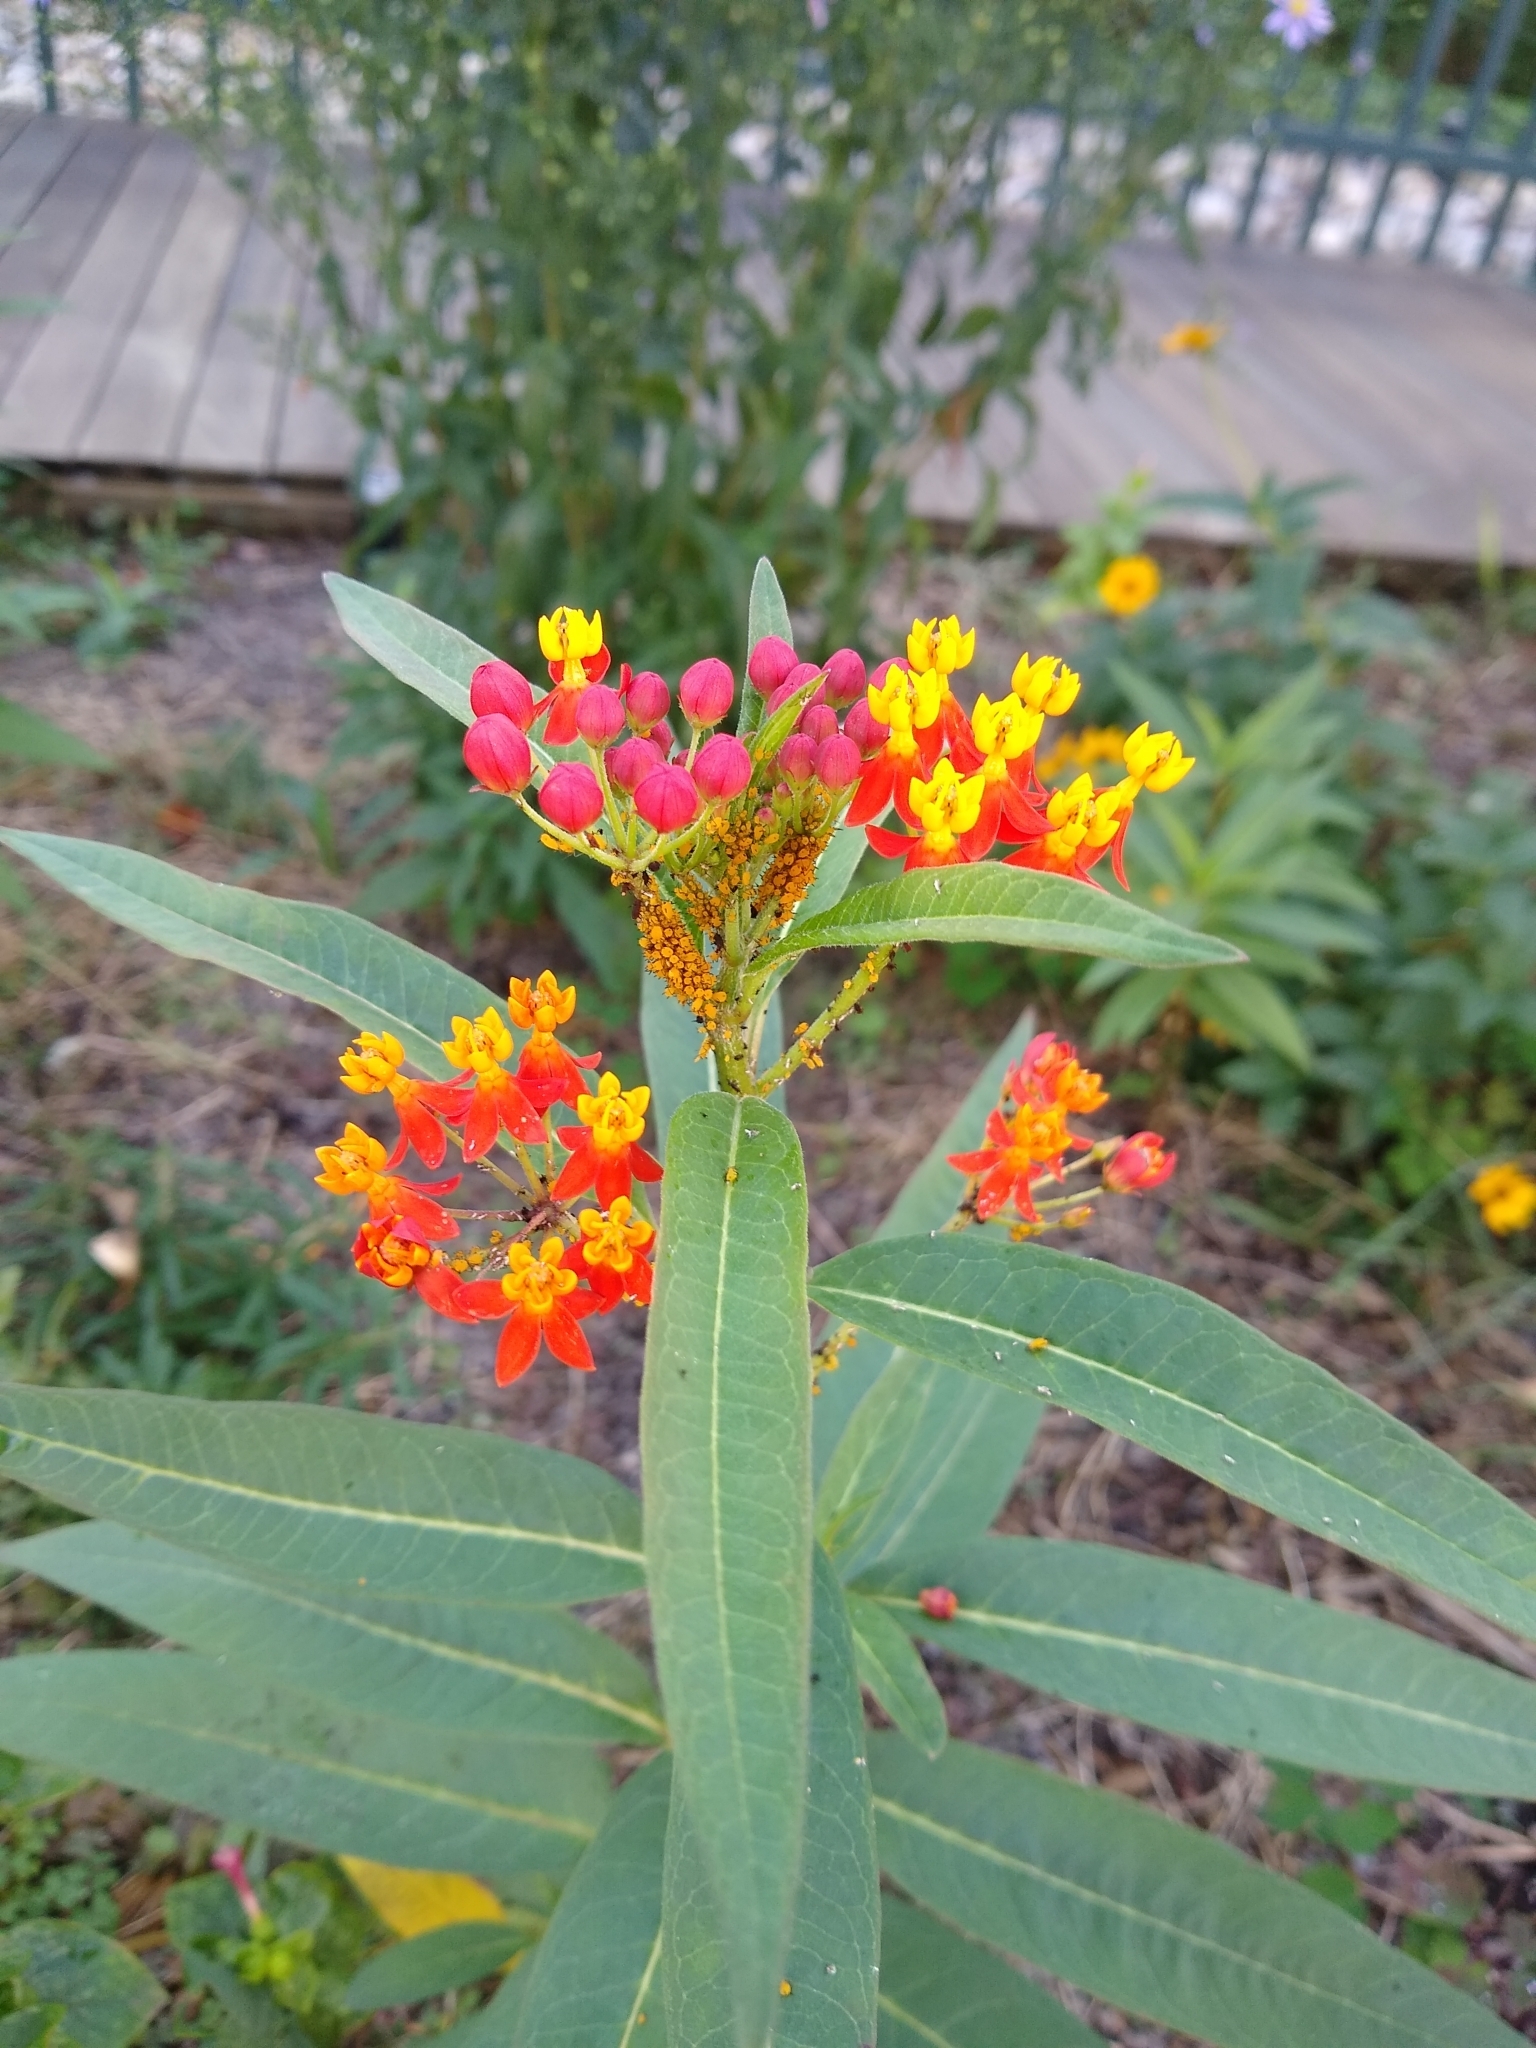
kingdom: Animalia
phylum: Arthropoda
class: Insecta
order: Hemiptera
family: Aphididae
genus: Aphis
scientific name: Aphis nerii
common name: Oleander aphid
